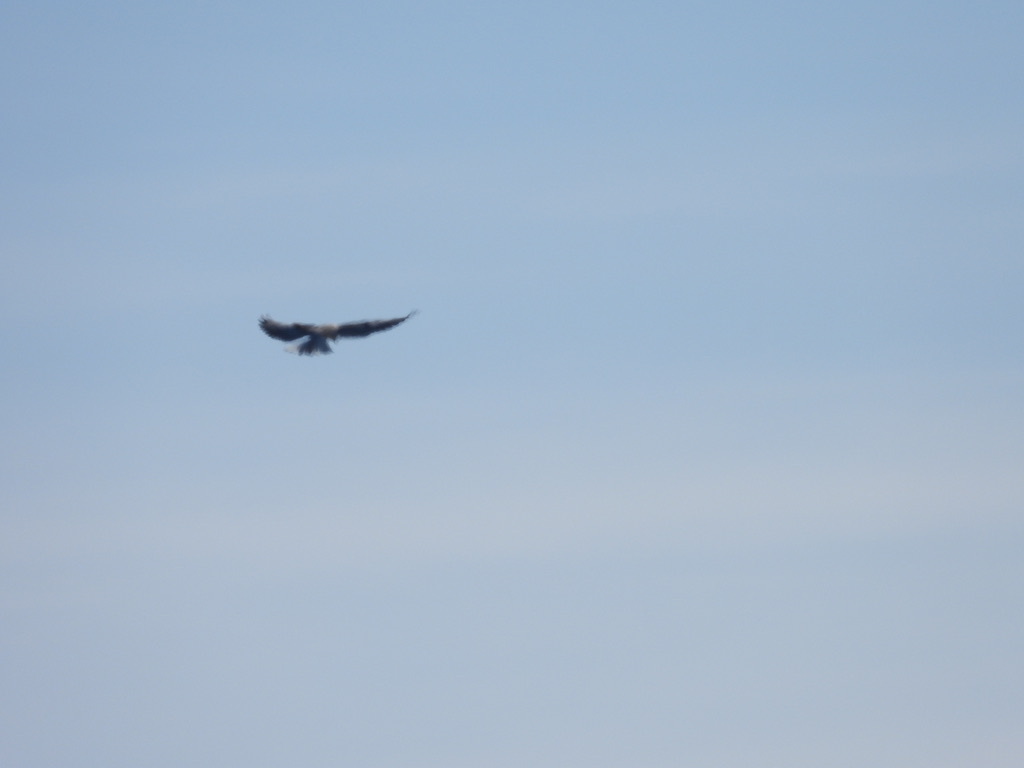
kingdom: Animalia
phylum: Chordata
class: Aves
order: Accipitriformes
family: Accipitridae
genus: Elanus
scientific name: Elanus leucurus
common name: White-tailed kite
